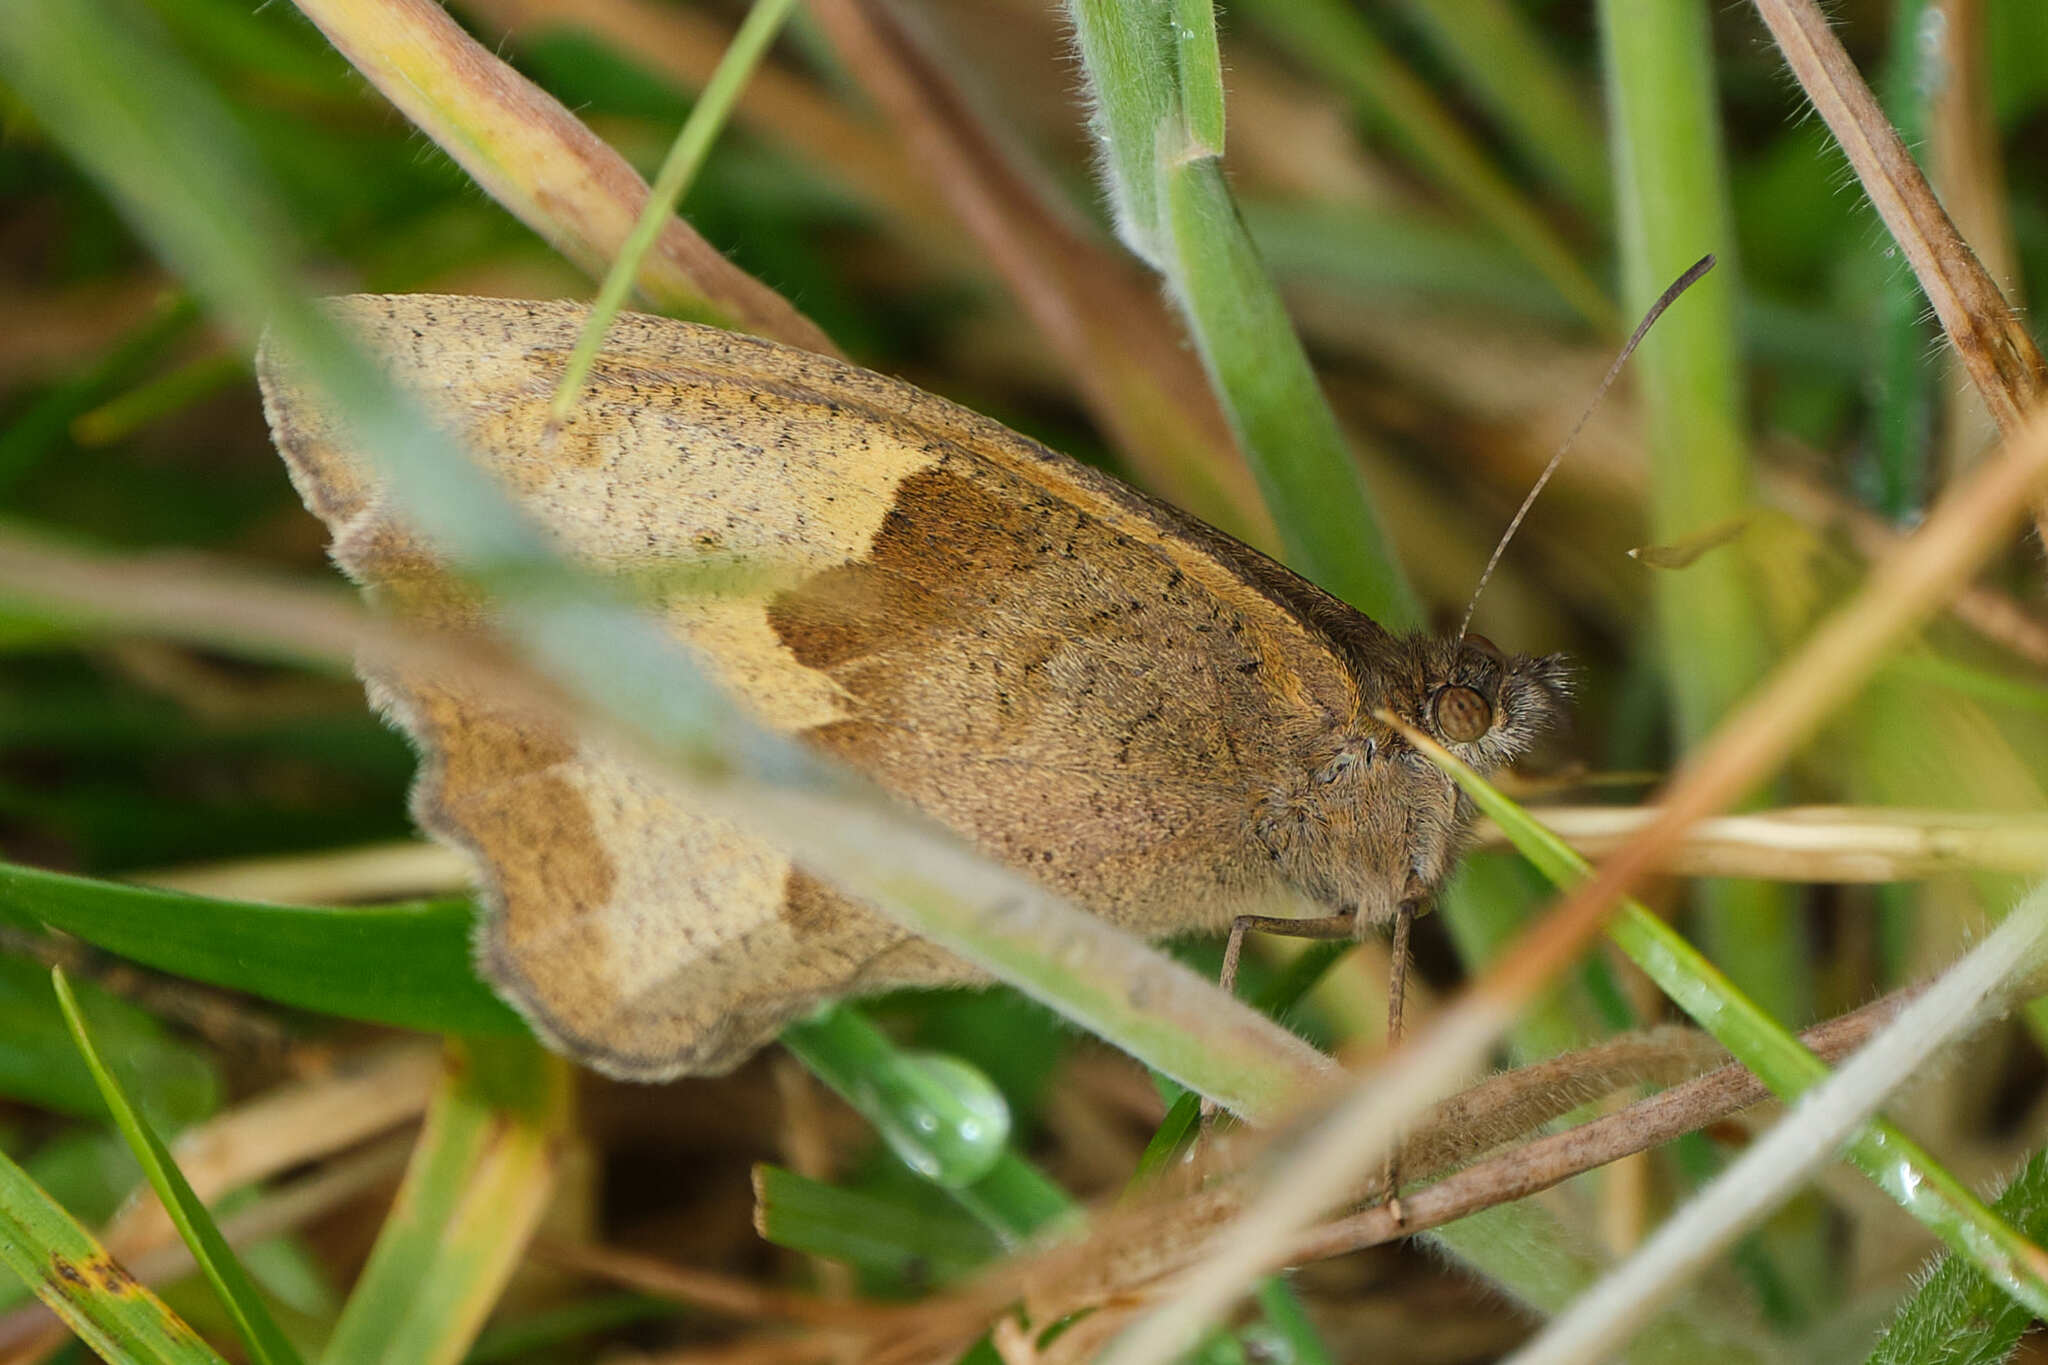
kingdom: Animalia
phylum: Arthropoda
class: Insecta
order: Lepidoptera
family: Nymphalidae
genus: Maniola
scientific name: Maniola jurtina
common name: Meadow brown
